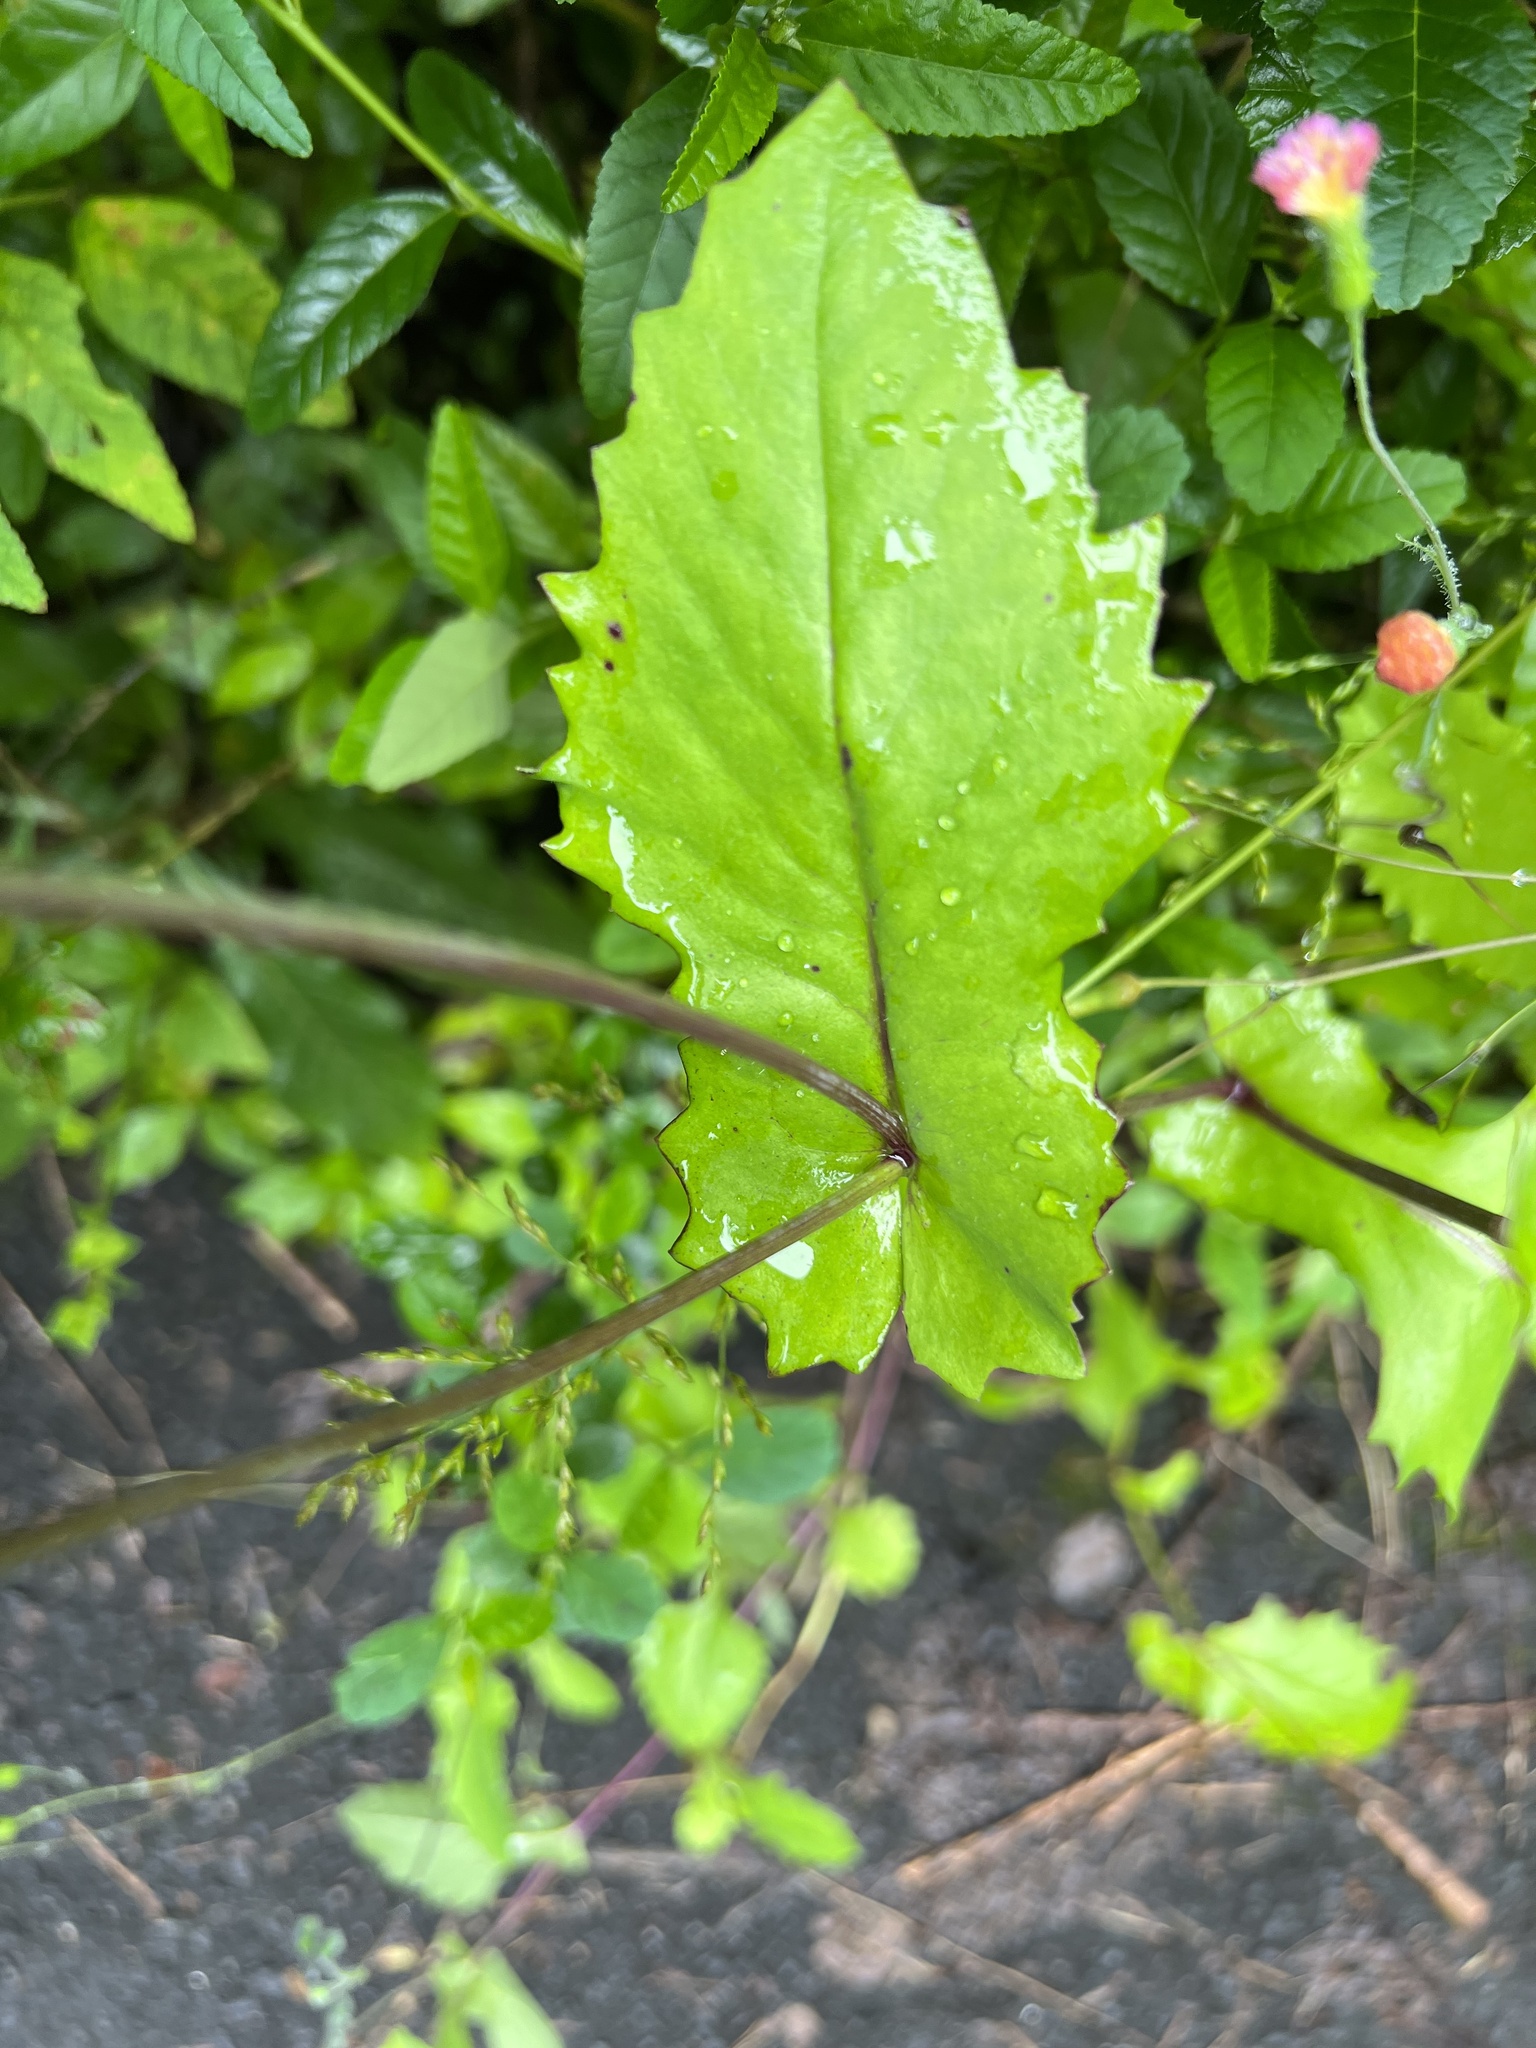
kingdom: Plantae
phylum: Tracheophyta
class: Magnoliopsida
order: Asterales
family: Asteraceae
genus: Emilia
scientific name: Emilia praetermissa
